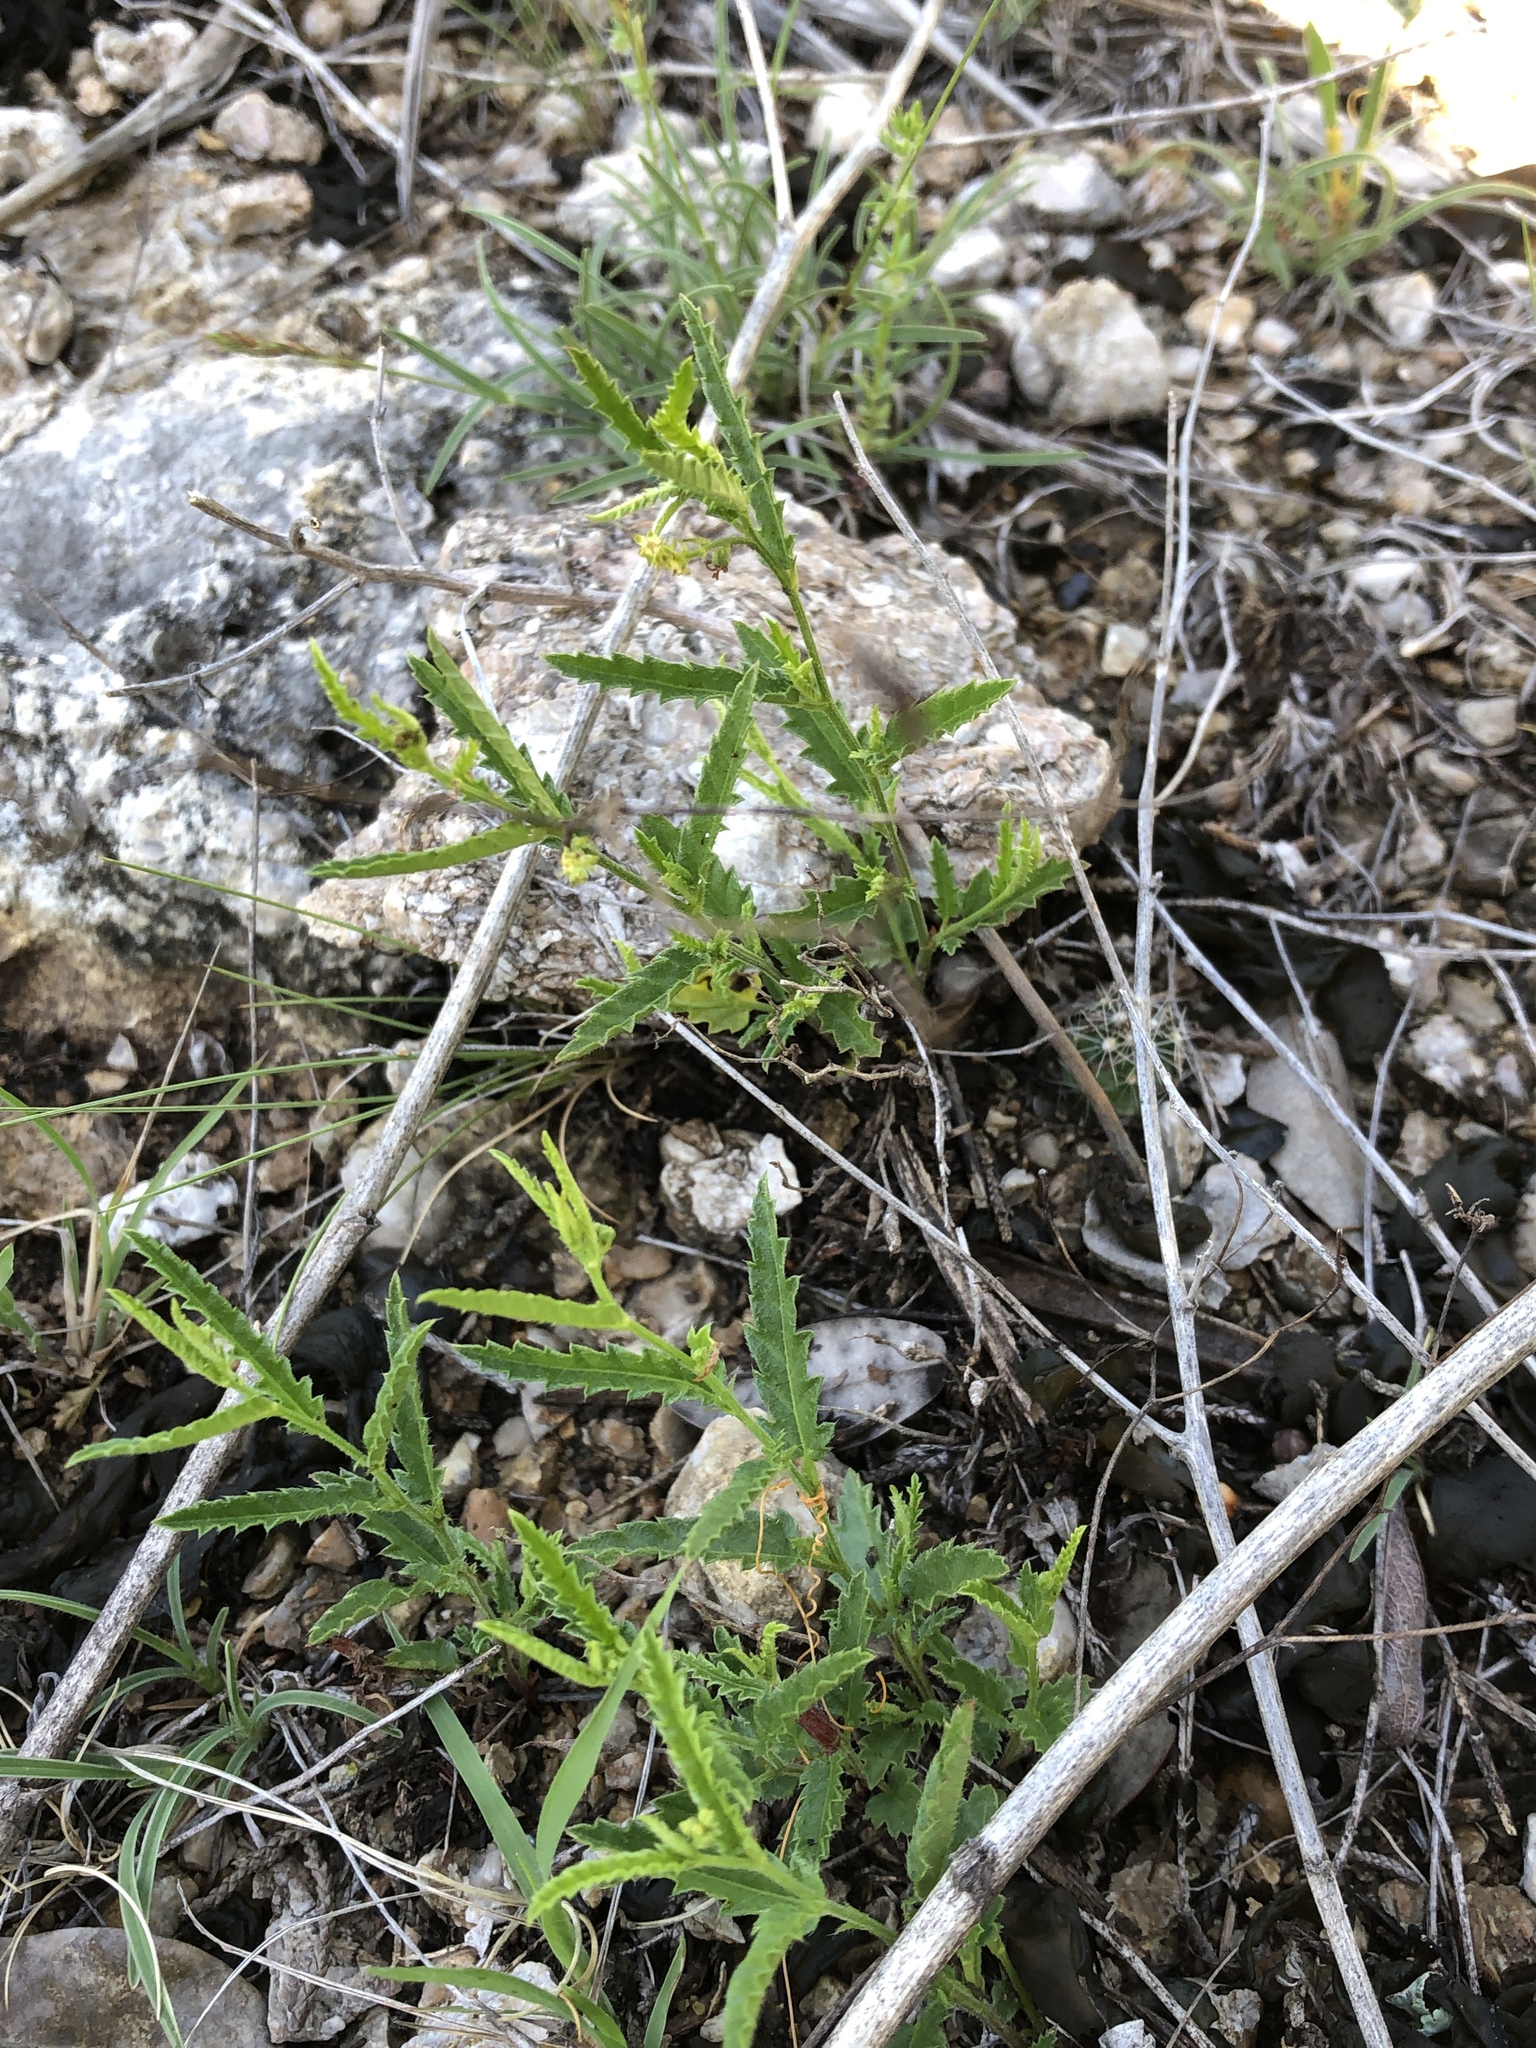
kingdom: Plantae
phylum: Tracheophyta
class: Magnoliopsida
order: Malpighiales
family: Euphorbiaceae
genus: Tragia
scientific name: Tragia ramosa
